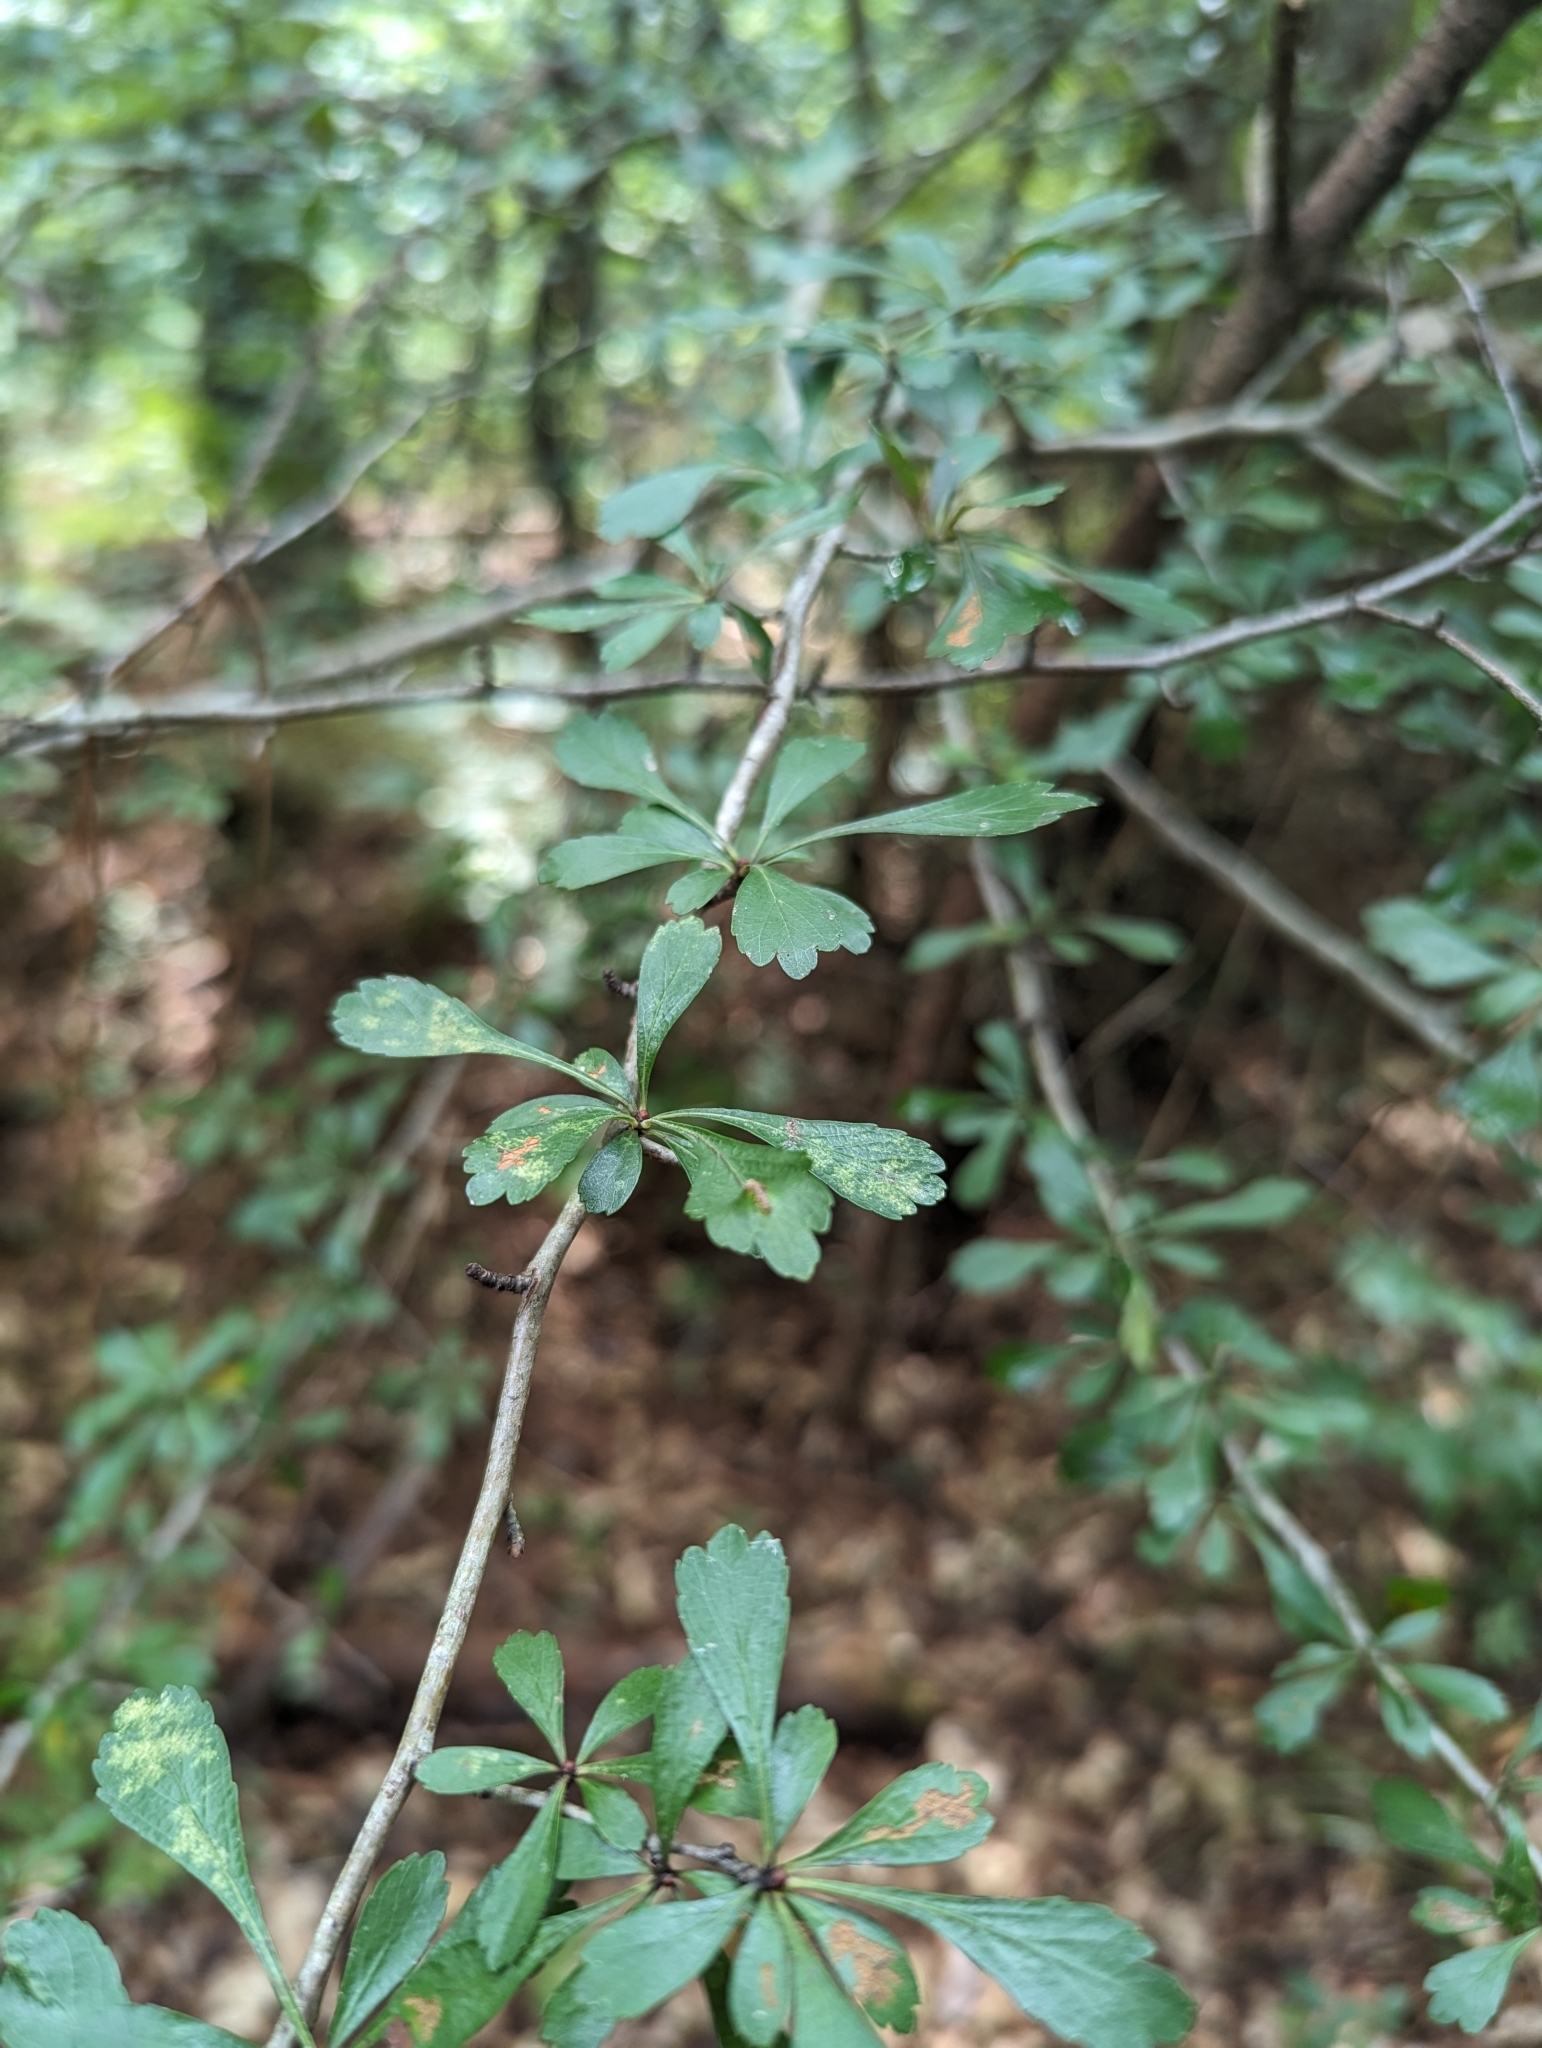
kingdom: Plantae
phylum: Tracheophyta
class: Magnoliopsida
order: Rosales
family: Rosaceae
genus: Crataegus
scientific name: Crataegus spathulata
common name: Littlehip hawthorn
